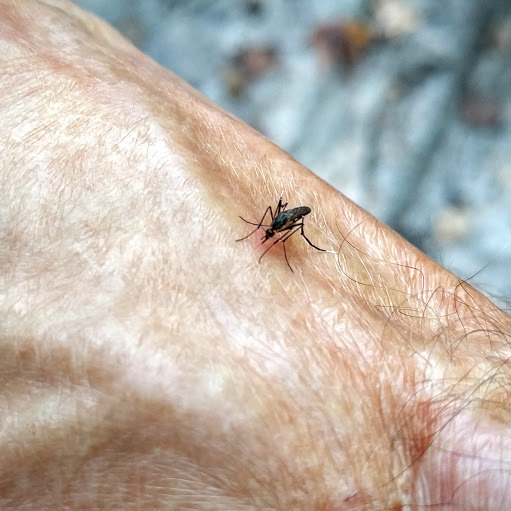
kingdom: Animalia
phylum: Arthropoda
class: Insecta
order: Diptera
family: Culicidae
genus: Psorophora
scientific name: Psorophora ferox
